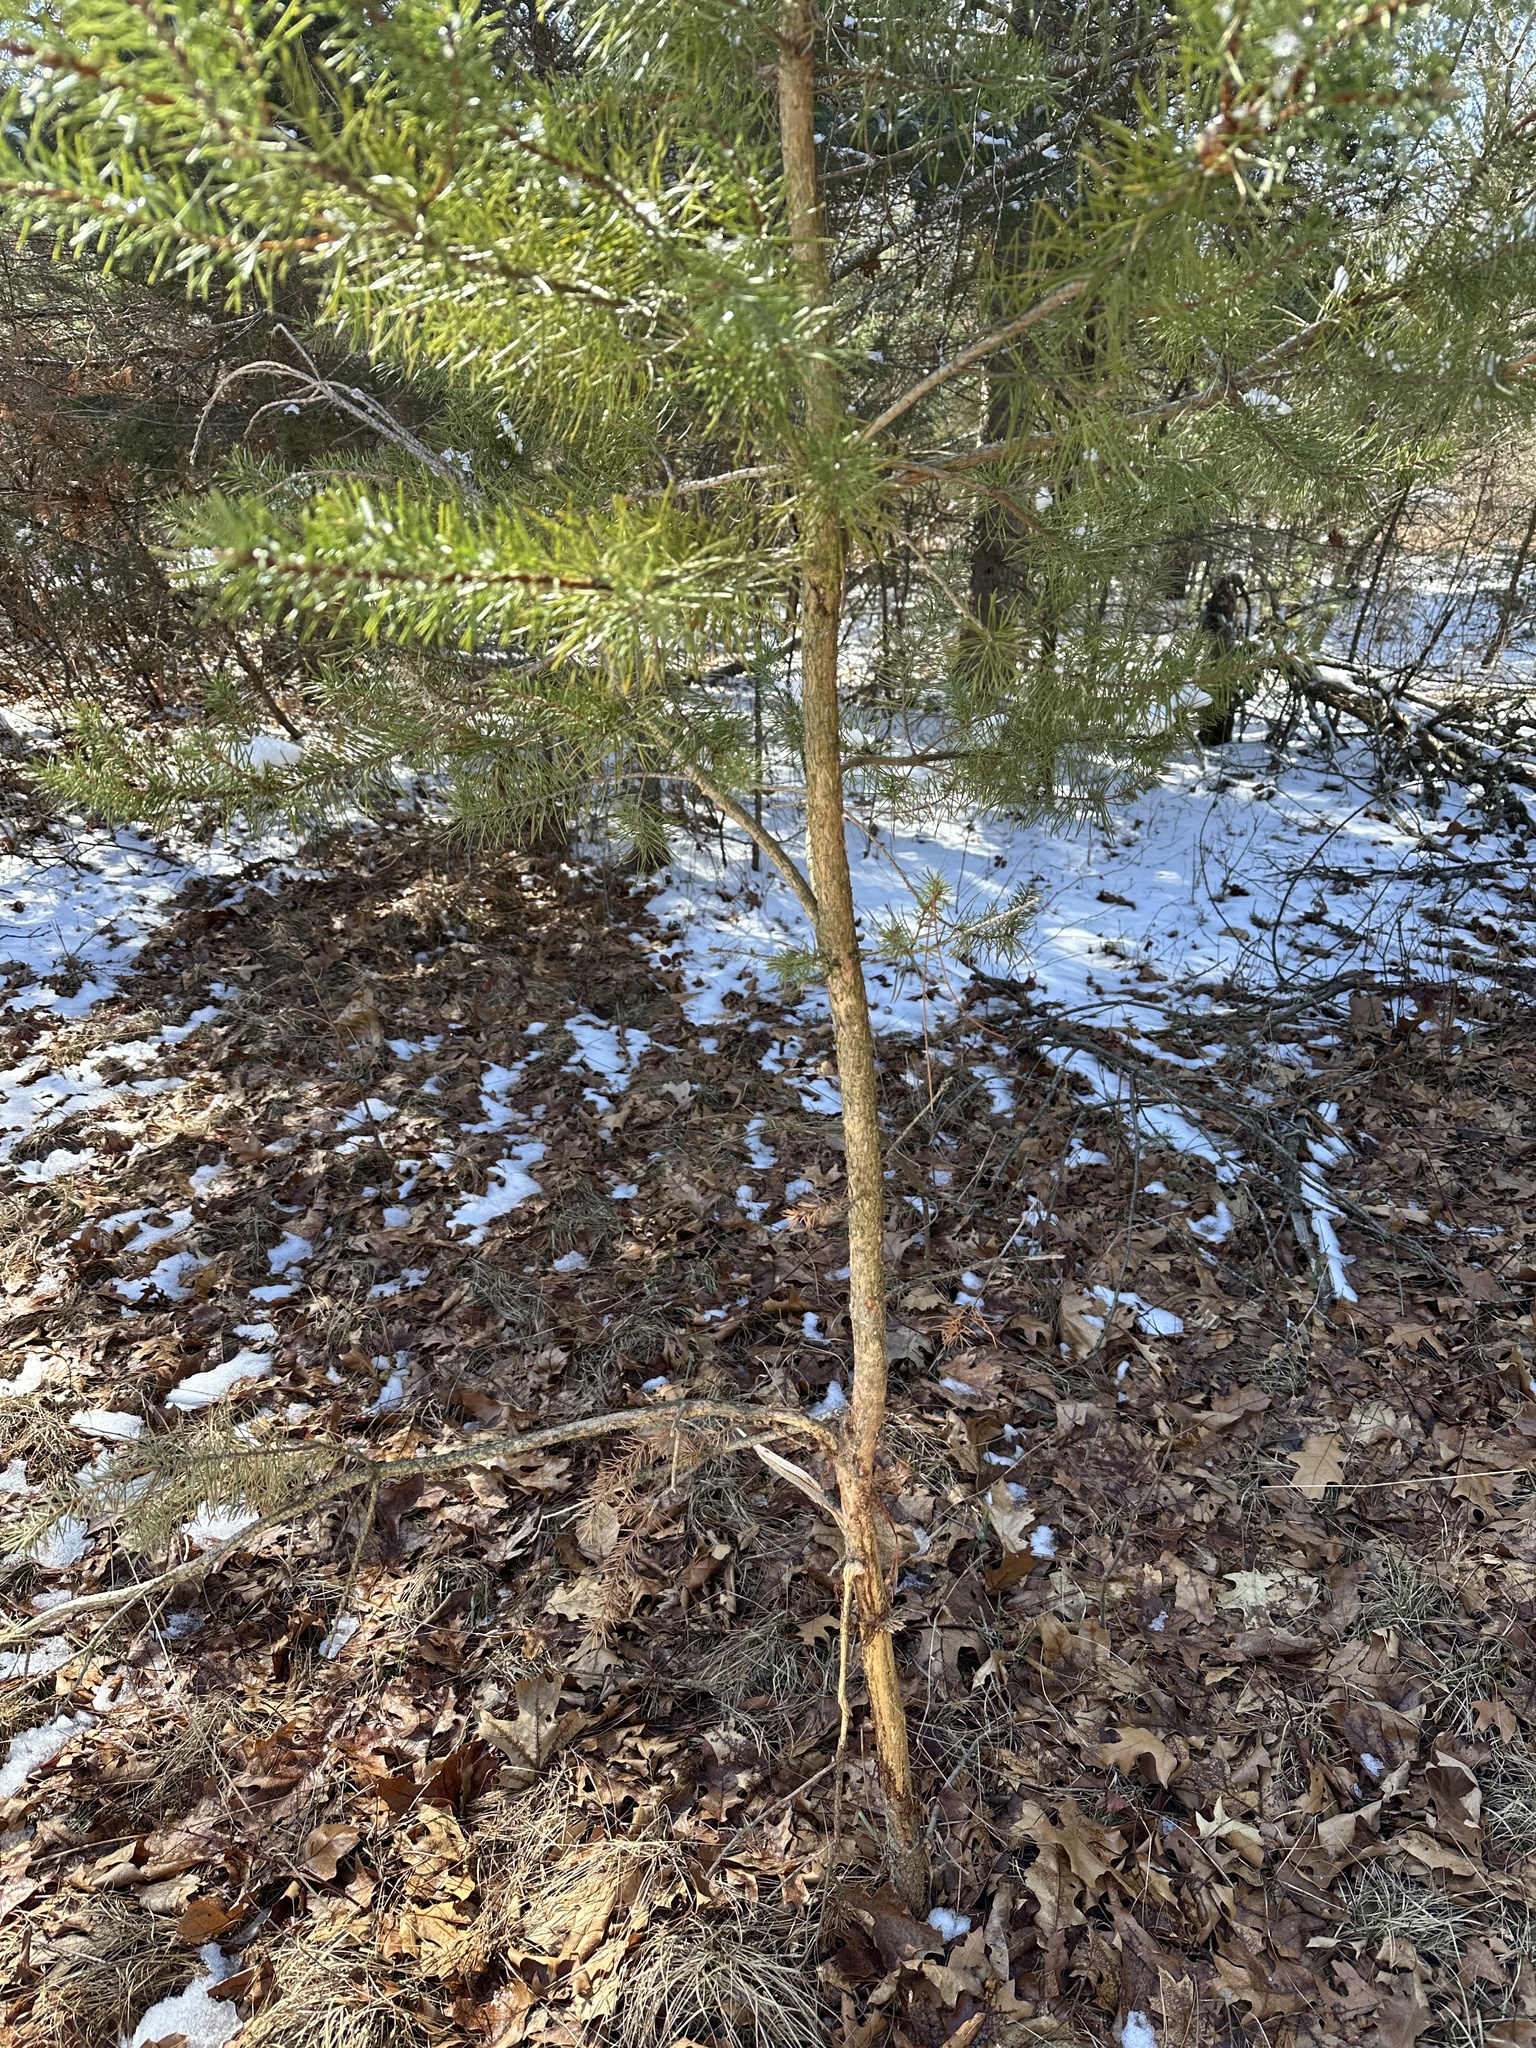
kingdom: Plantae
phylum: Tracheophyta
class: Pinopsida
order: Pinales
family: Pinaceae
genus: Pinus
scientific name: Pinus banksiana
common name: Jack pine
